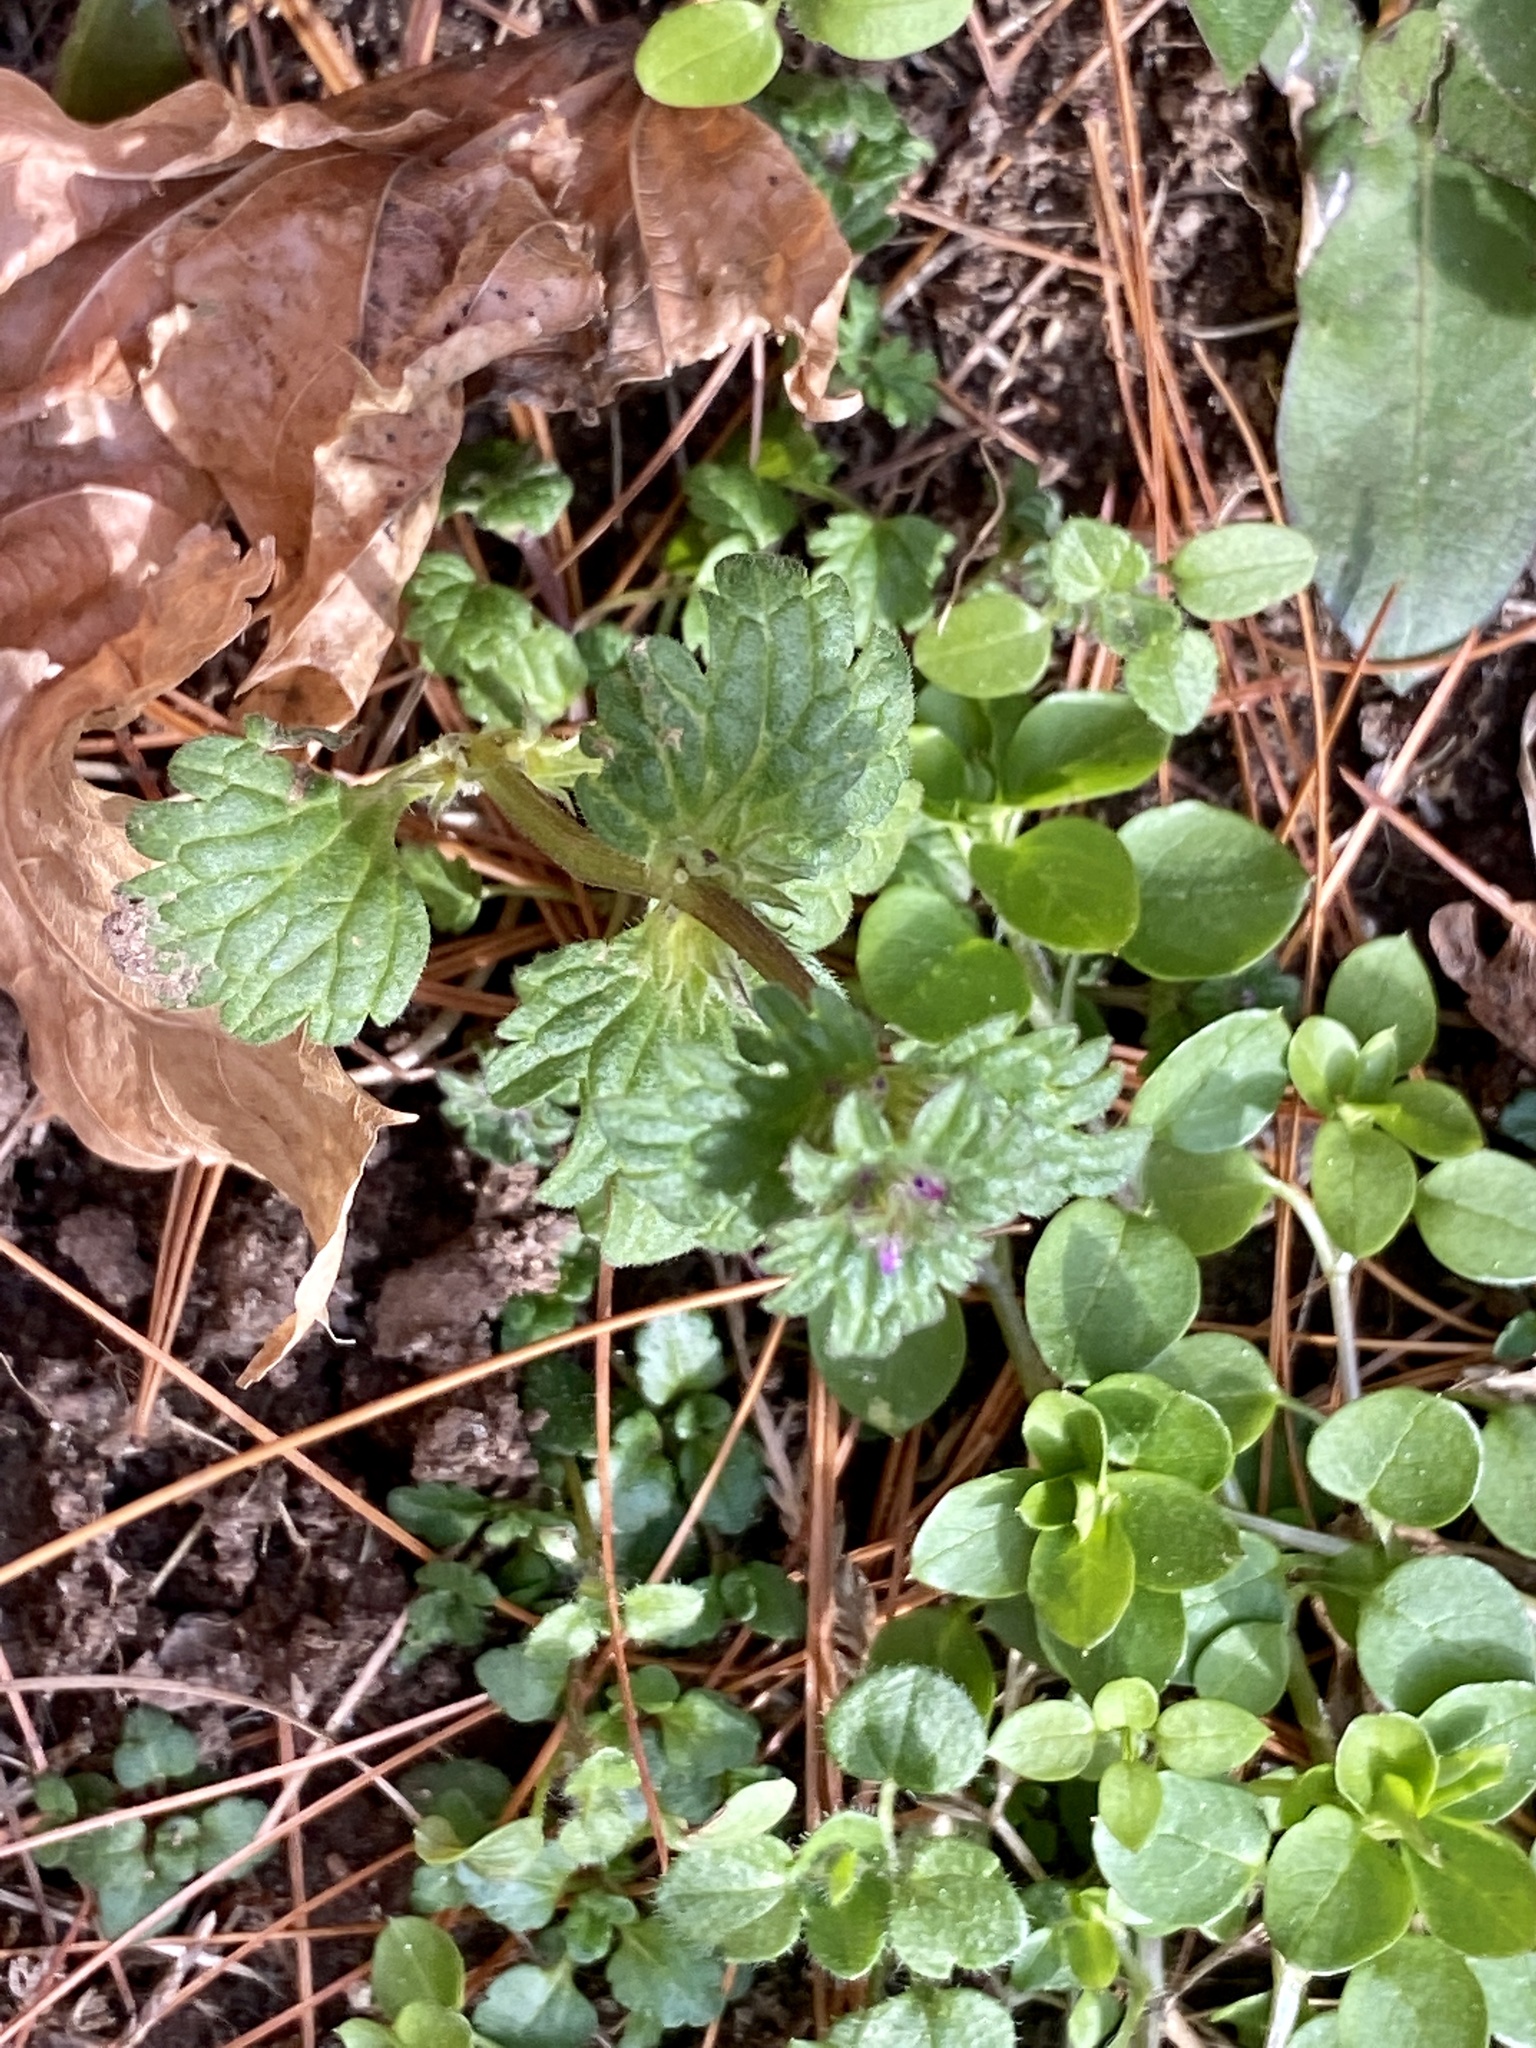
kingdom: Plantae
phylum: Tracheophyta
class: Magnoliopsida
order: Lamiales
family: Lamiaceae
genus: Lamium
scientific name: Lamium amplexicaule
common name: Henbit dead-nettle
